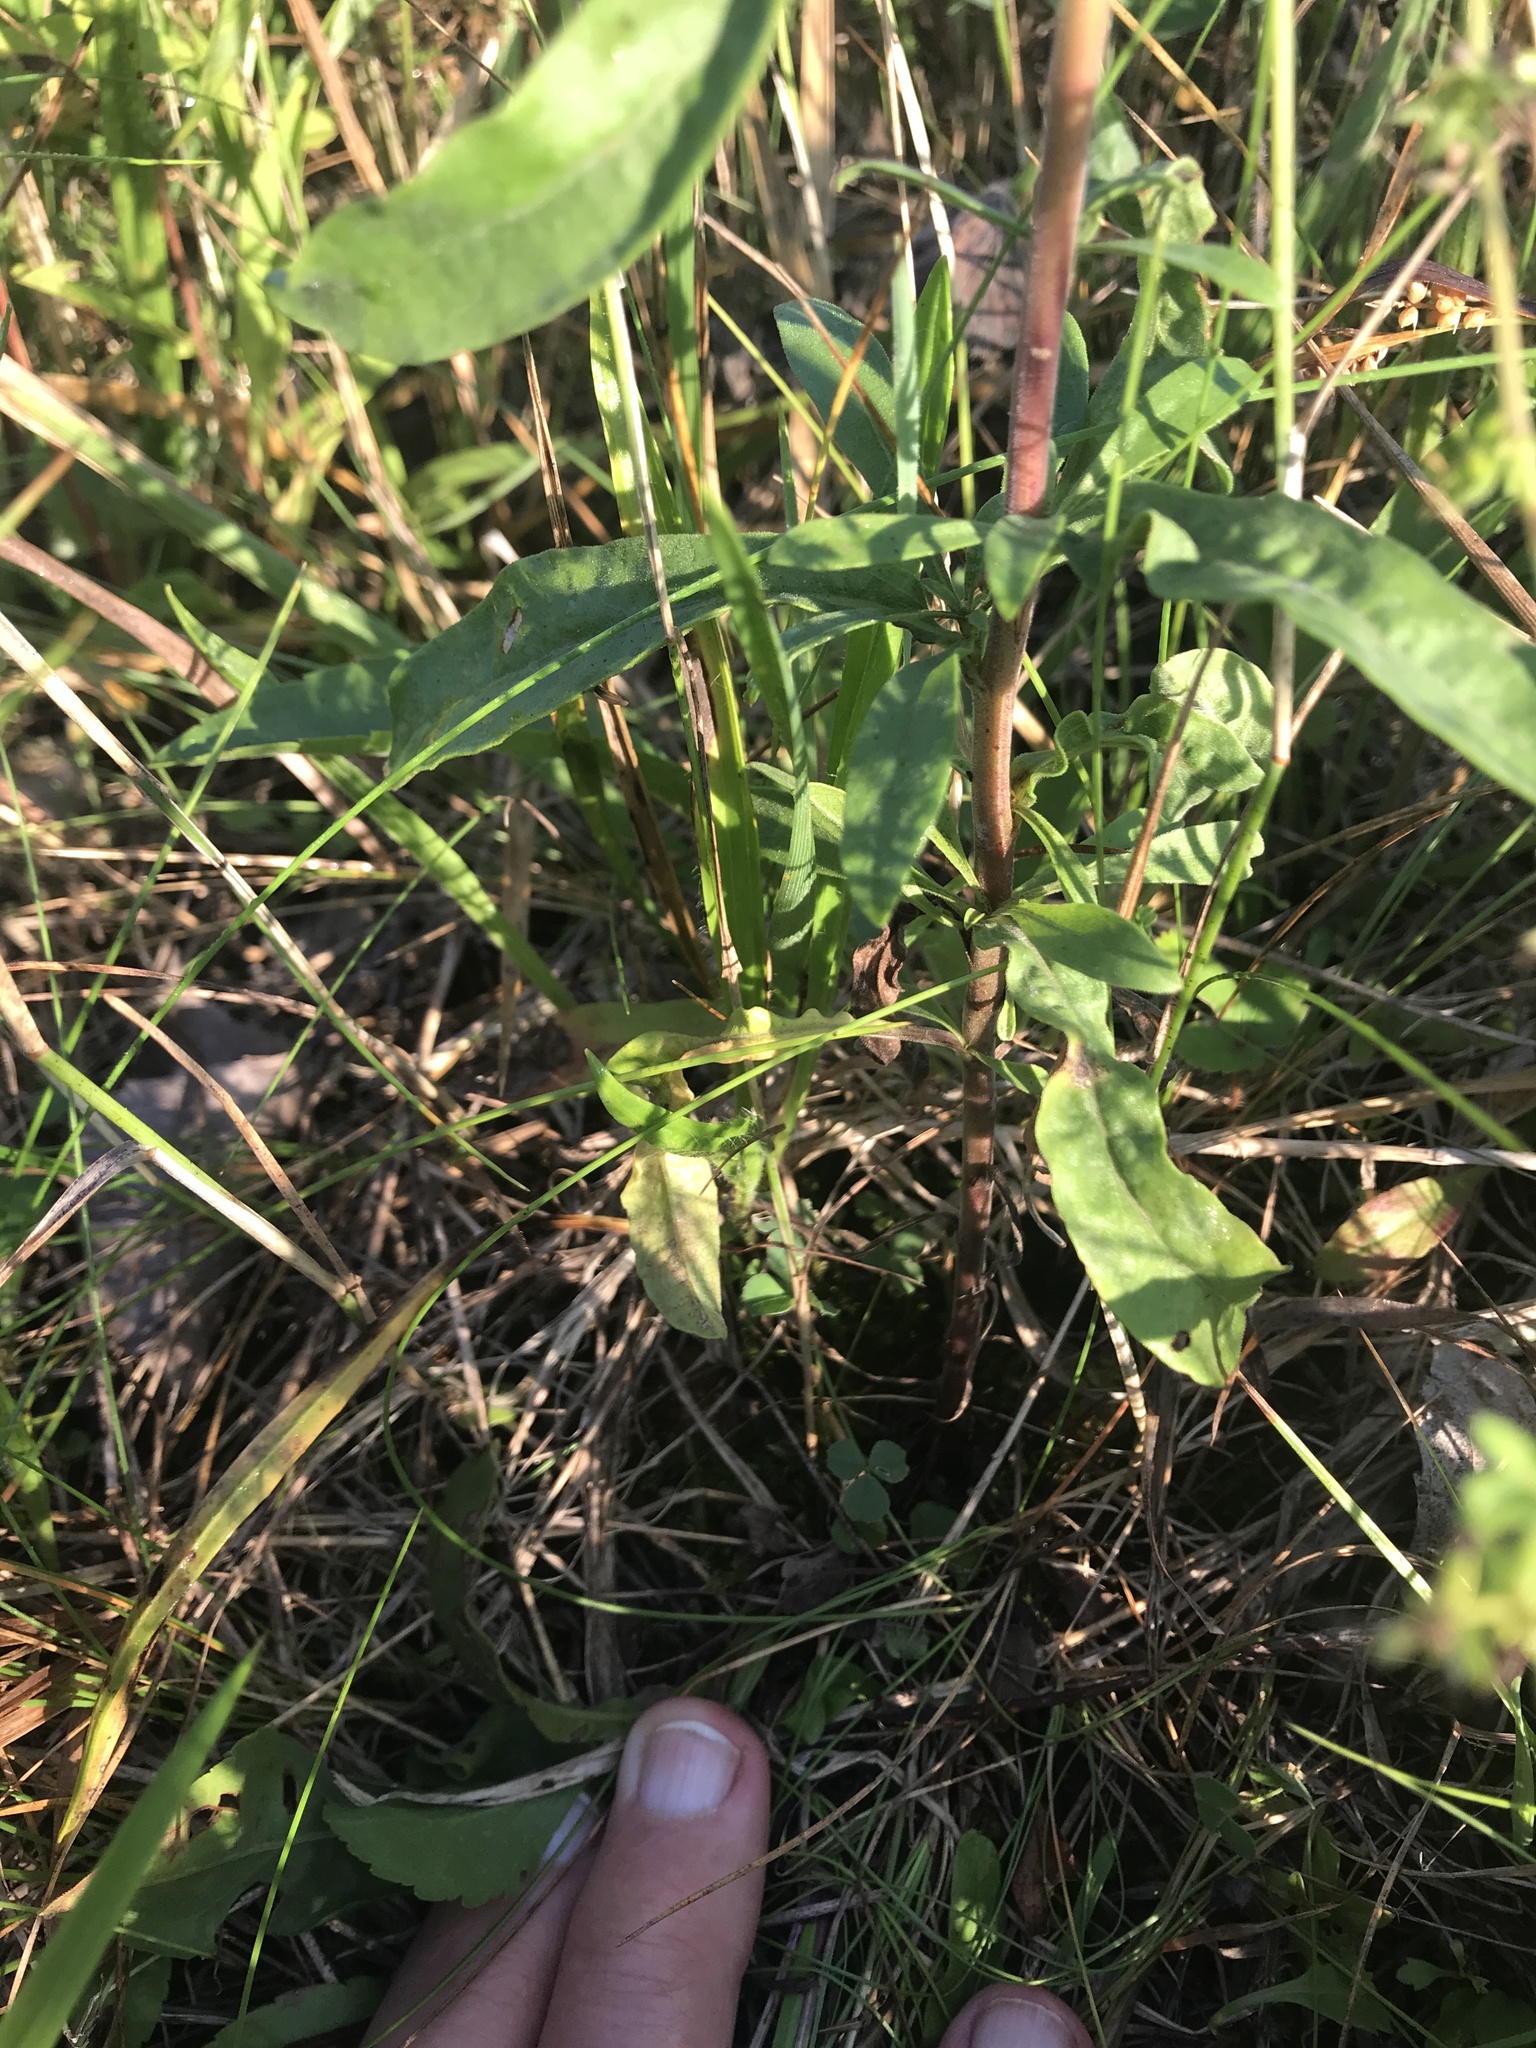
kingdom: Plantae
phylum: Tracheophyta
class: Magnoliopsida
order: Asterales
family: Asteraceae
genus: Solidago
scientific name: Solidago nemoralis
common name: Grey goldenrod
